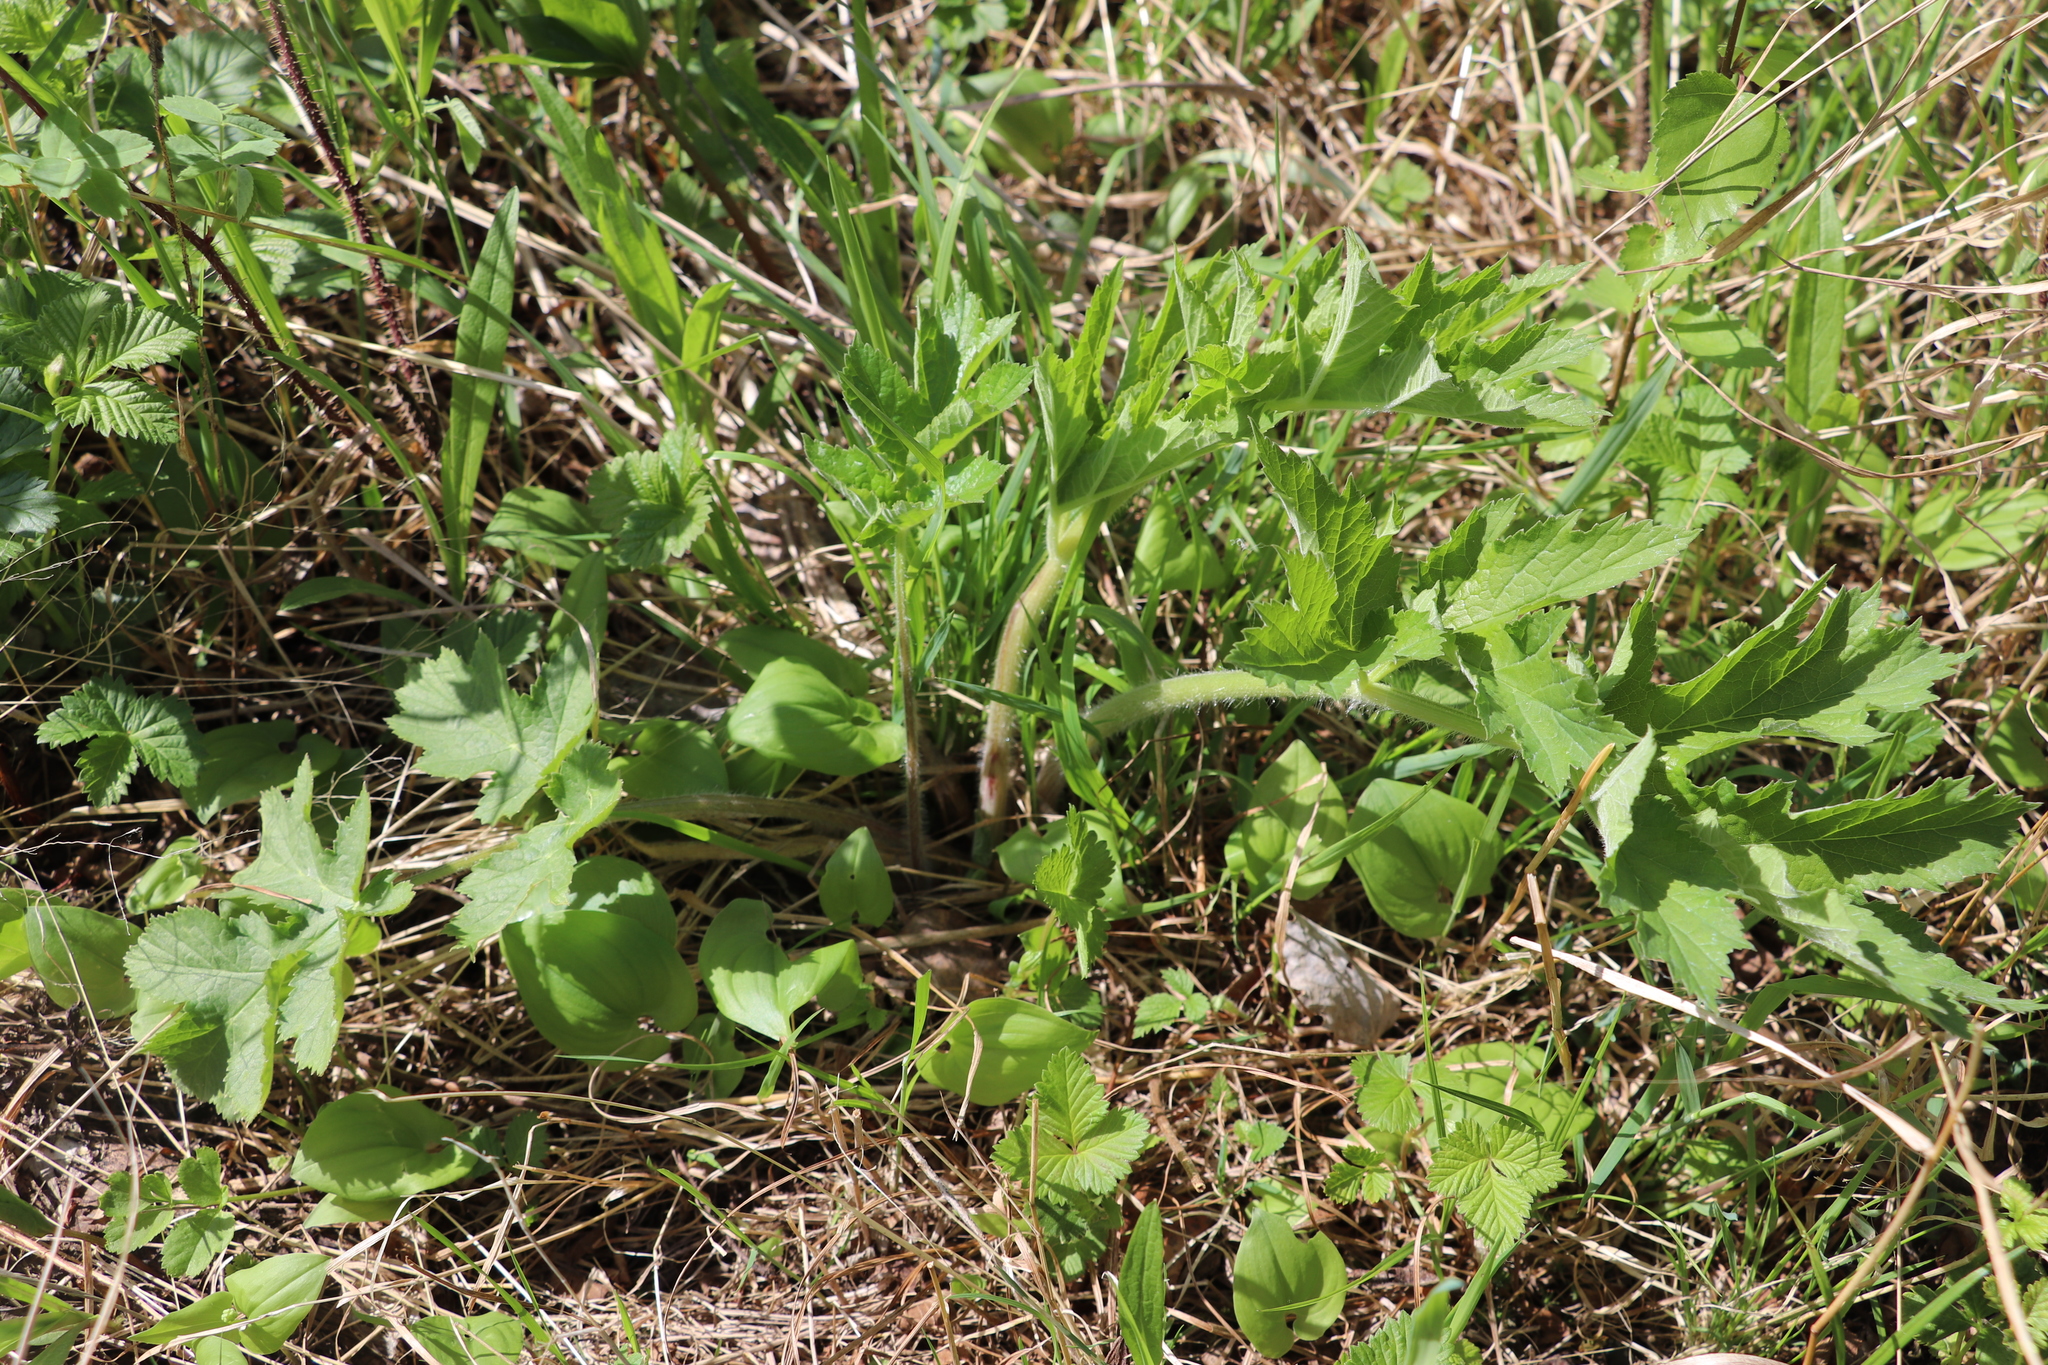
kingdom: Plantae
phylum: Tracheophyta
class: Magnoliopsida
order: Apiales
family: Apiaceae
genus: Heracleum
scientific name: Heracleum sphondylium
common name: Hogweed
